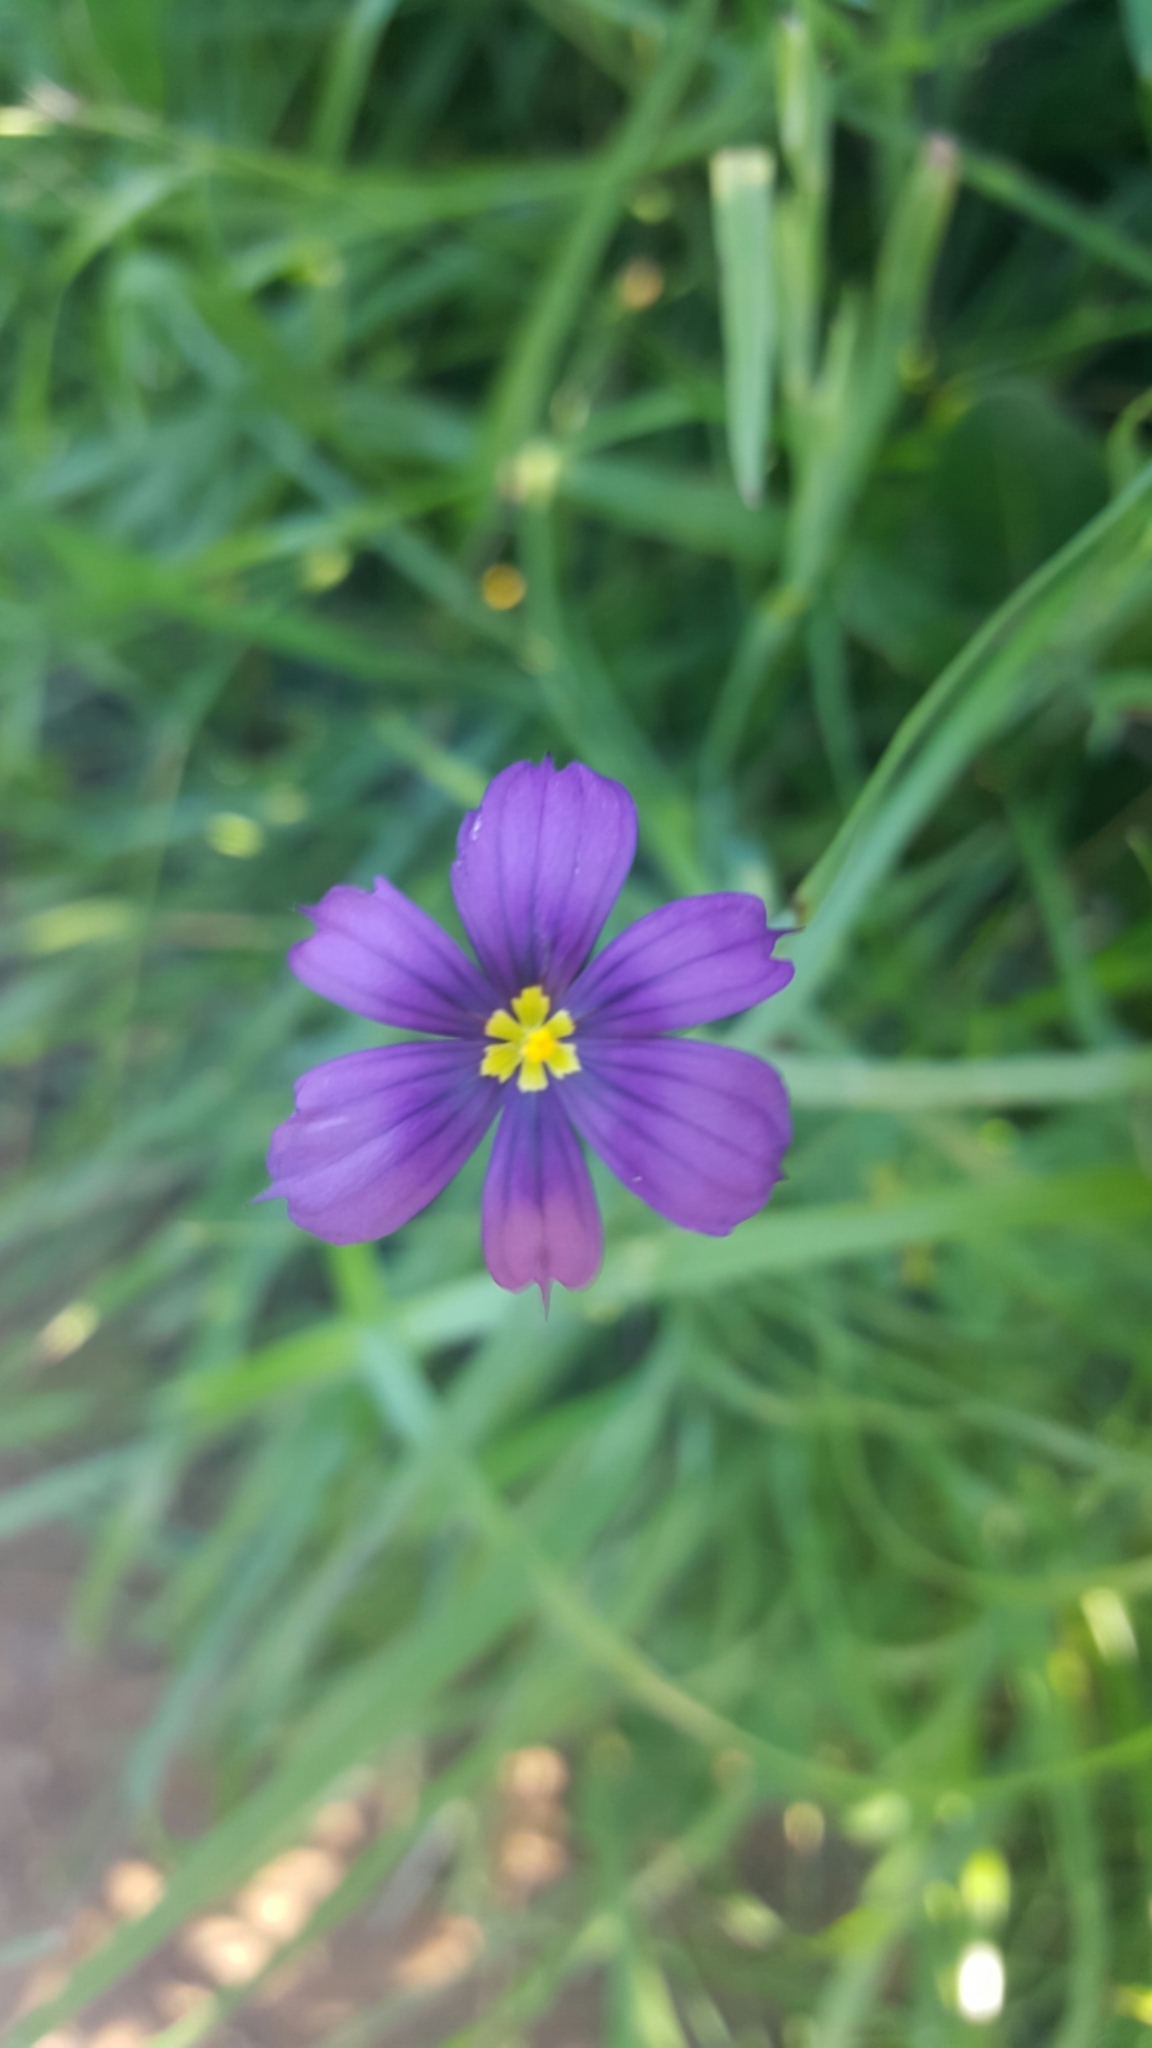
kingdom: Plantae
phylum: Tracheophyta
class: Liliopsida
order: Asparagales
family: Iridaceae
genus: Sisyrinchium
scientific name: Sisyrinchium bellum
